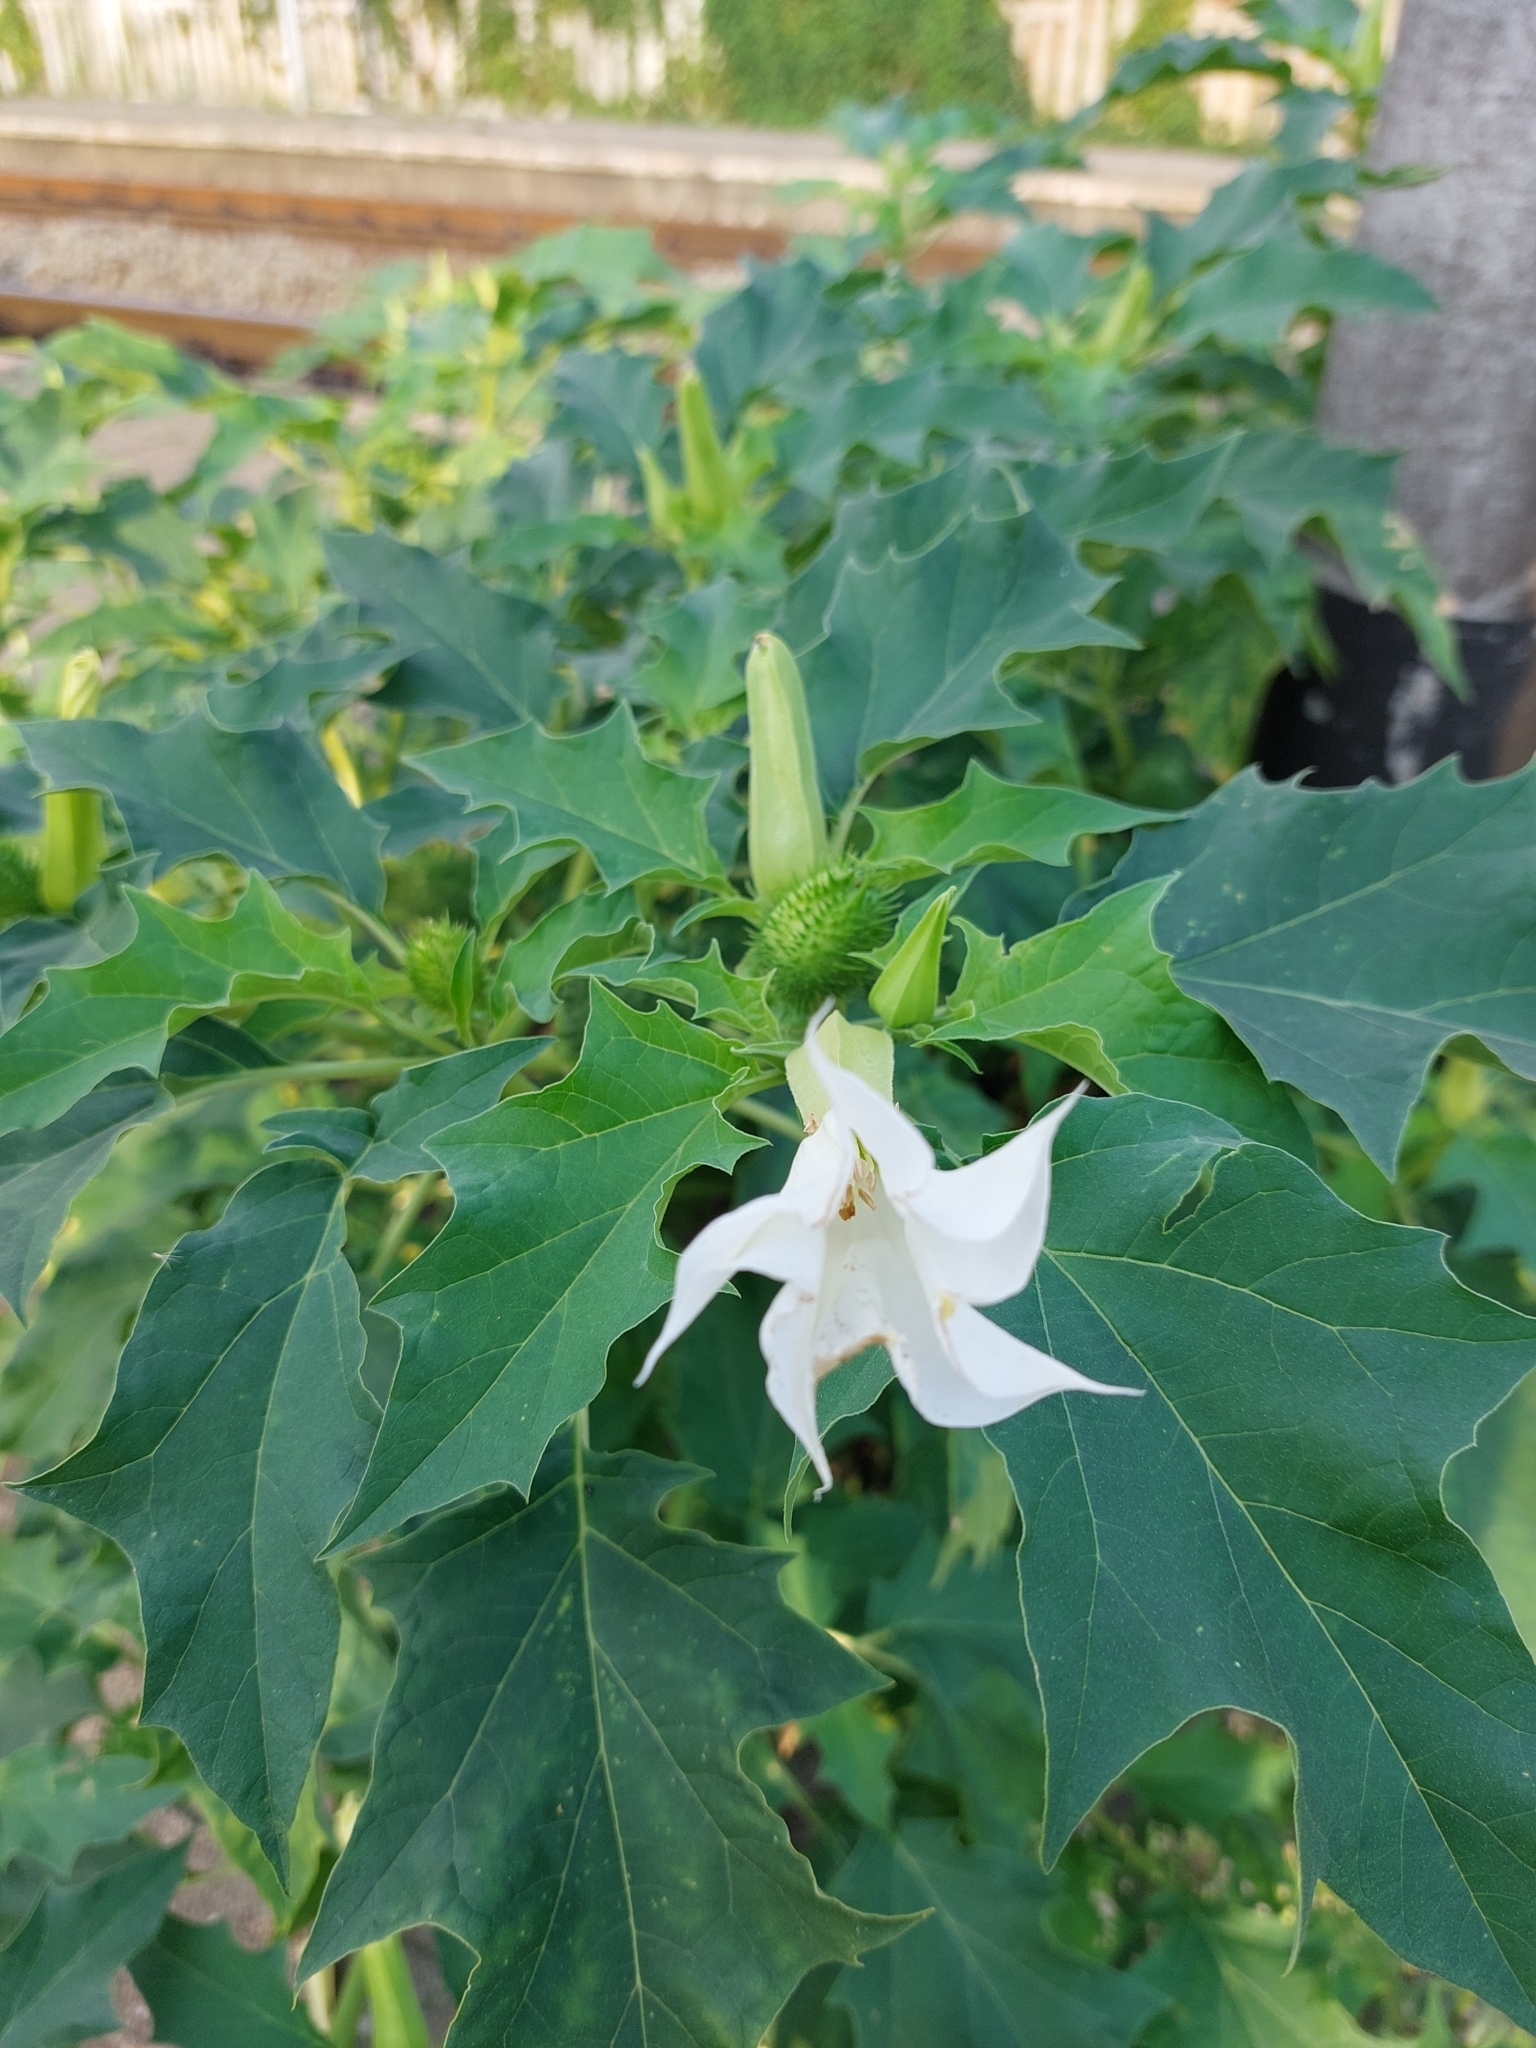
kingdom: Plantae
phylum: Tracheophyta
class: Magnoliopsida
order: Solanales
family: Solanaceae
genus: Datura
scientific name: Datura stramonium
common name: Thorn-apple
